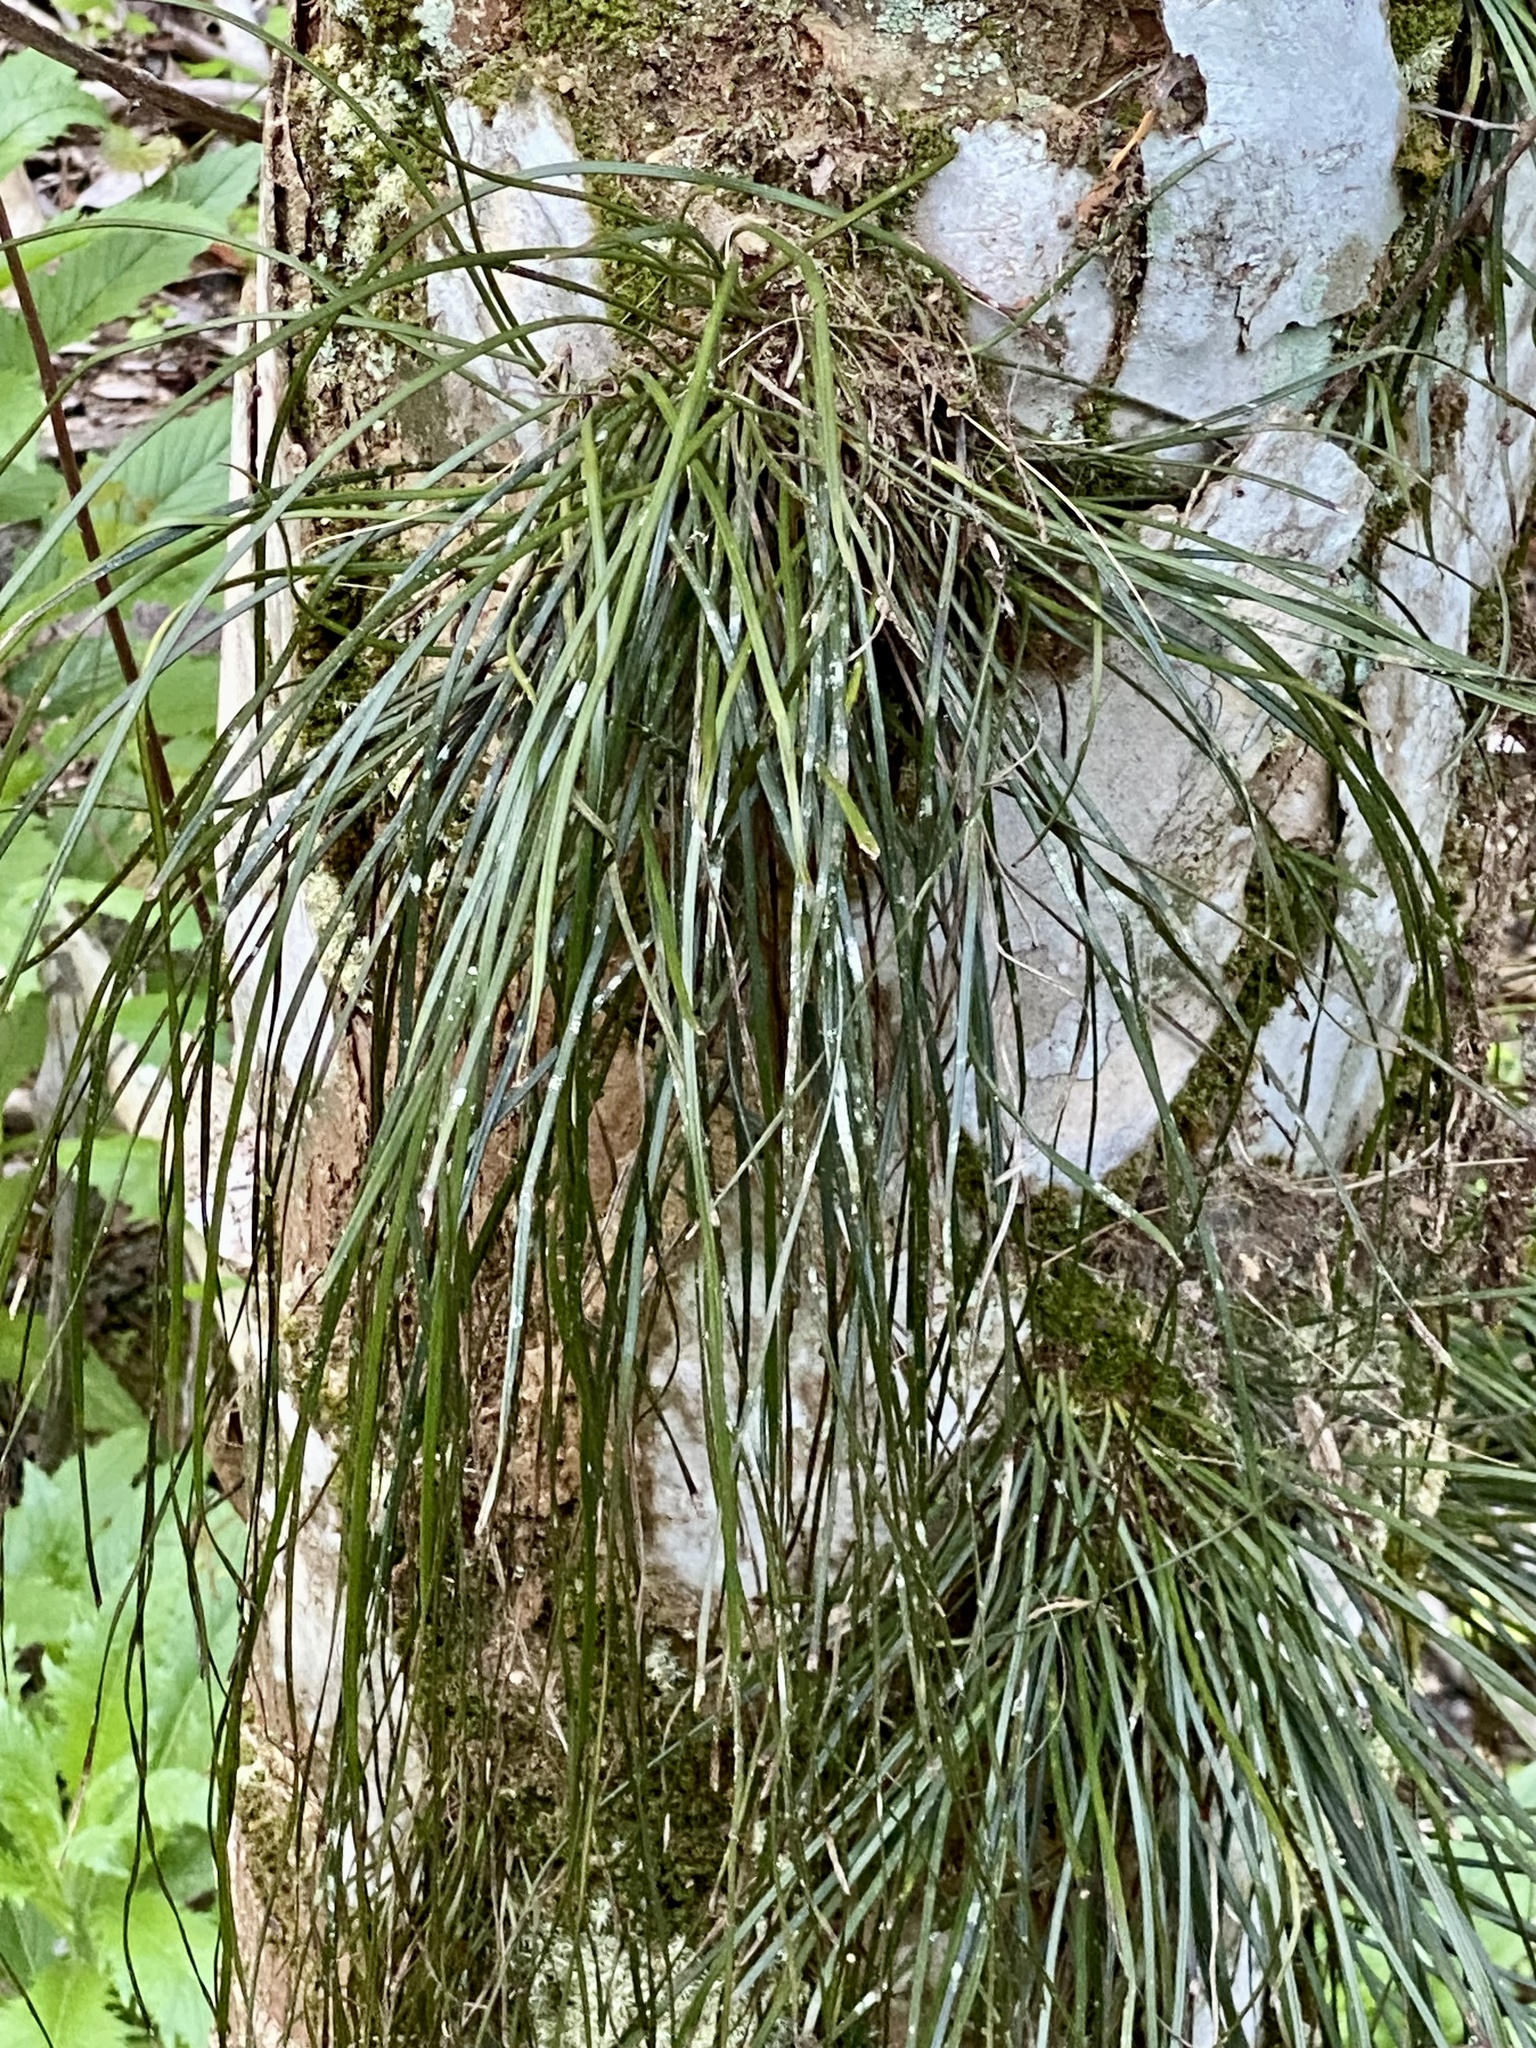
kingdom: Plantae
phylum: Tracheophyta
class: Polypodiopsida
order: Polypodiales
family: Pteridaceae
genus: Vittaria
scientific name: Vittaria lineata
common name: Shoestring fern
